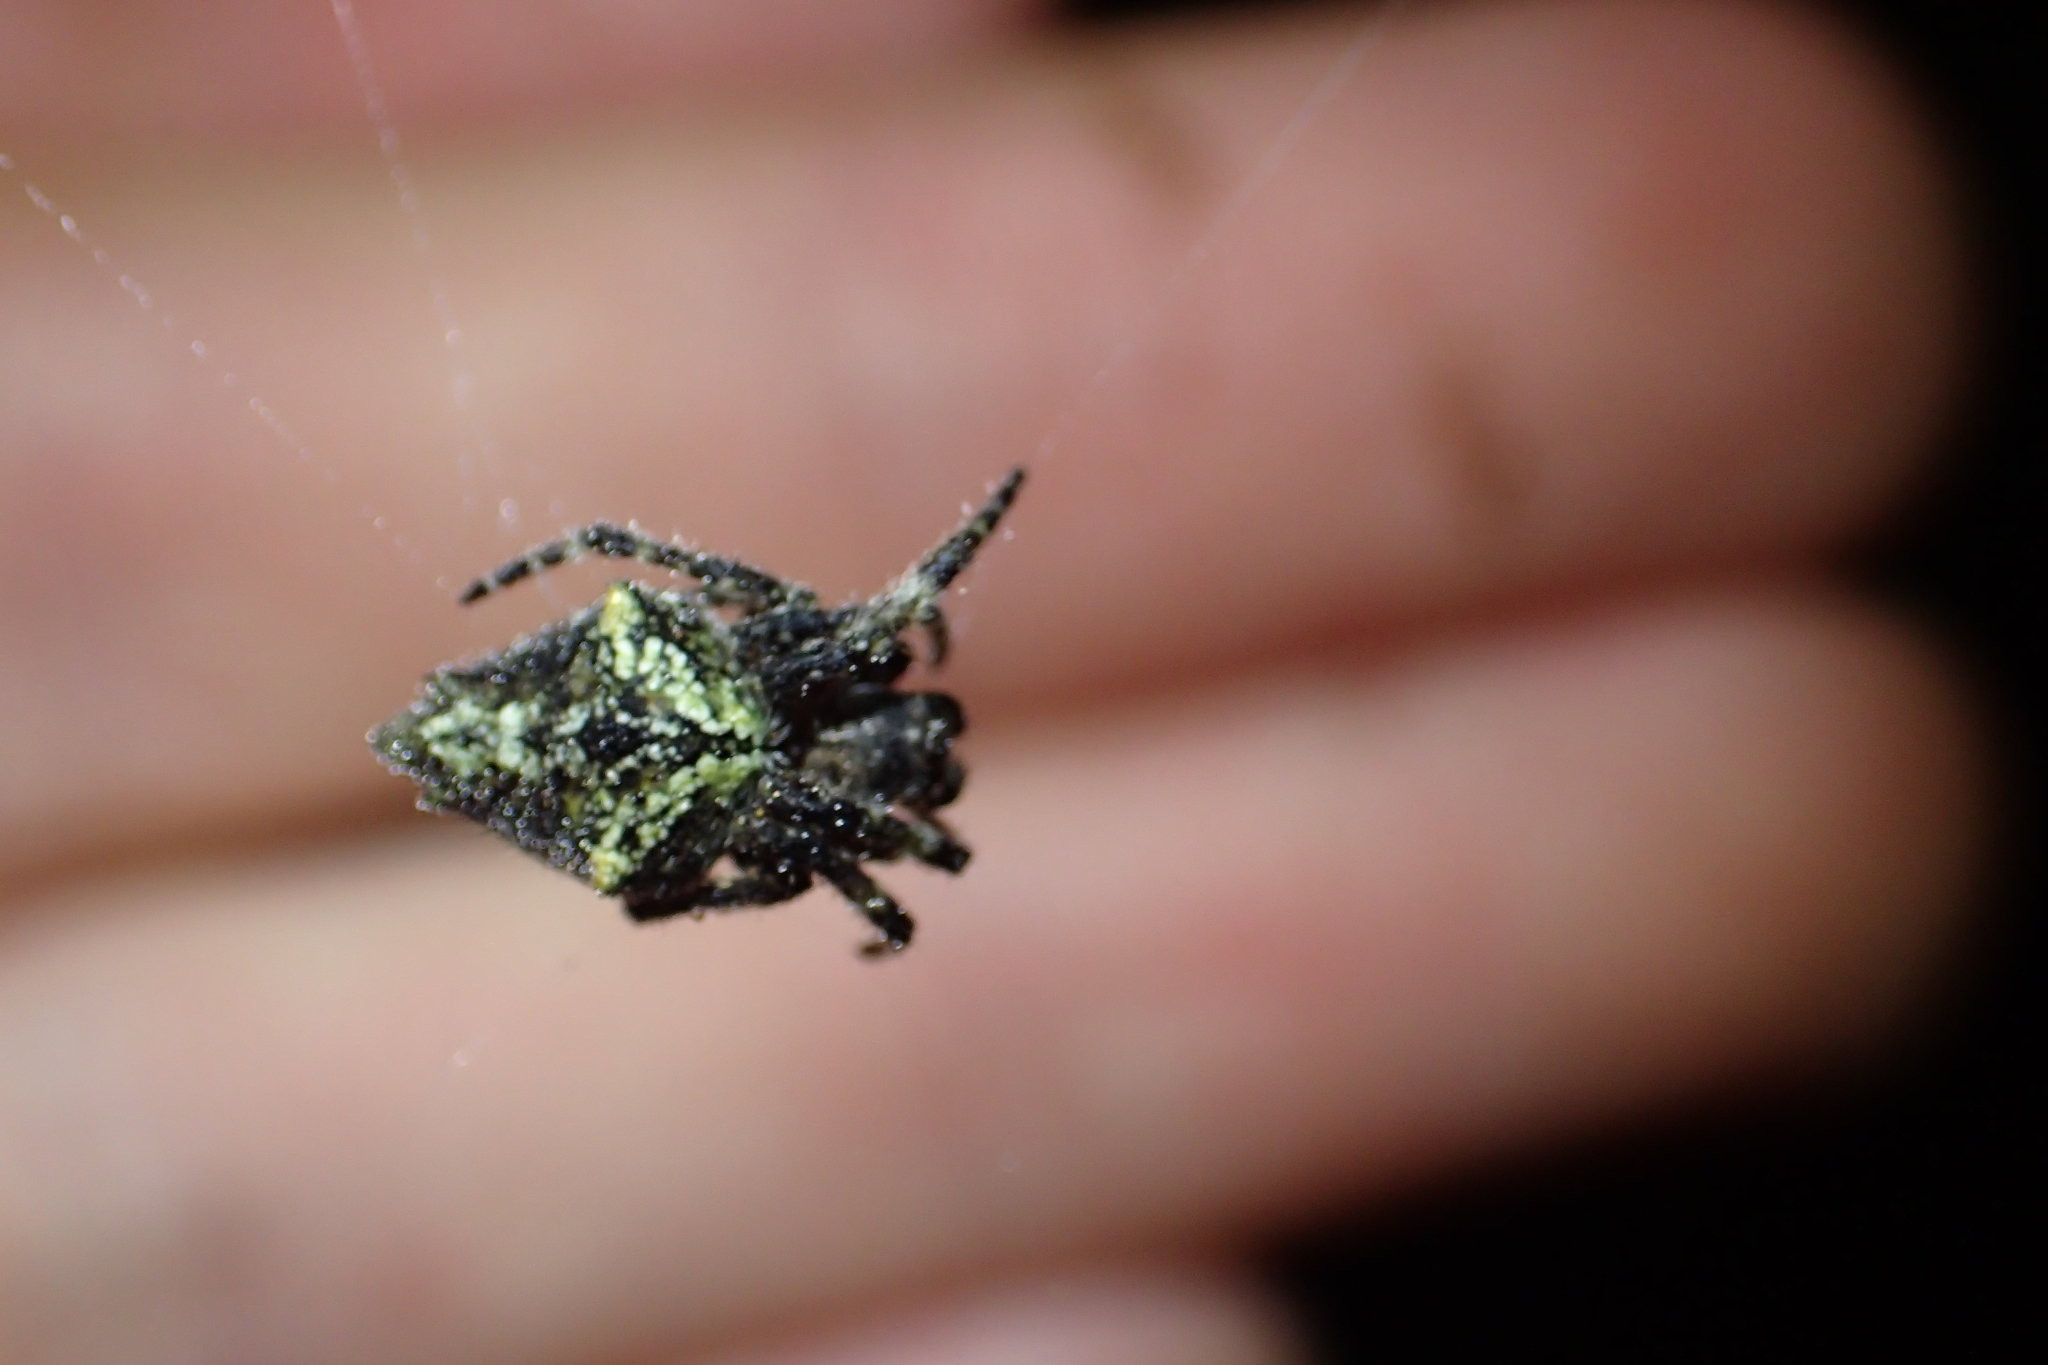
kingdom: Animalia
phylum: Arthropoda
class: Arachnida
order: Araneae
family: Araneidae
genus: Eriophora
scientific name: Eriophora pustulosa
